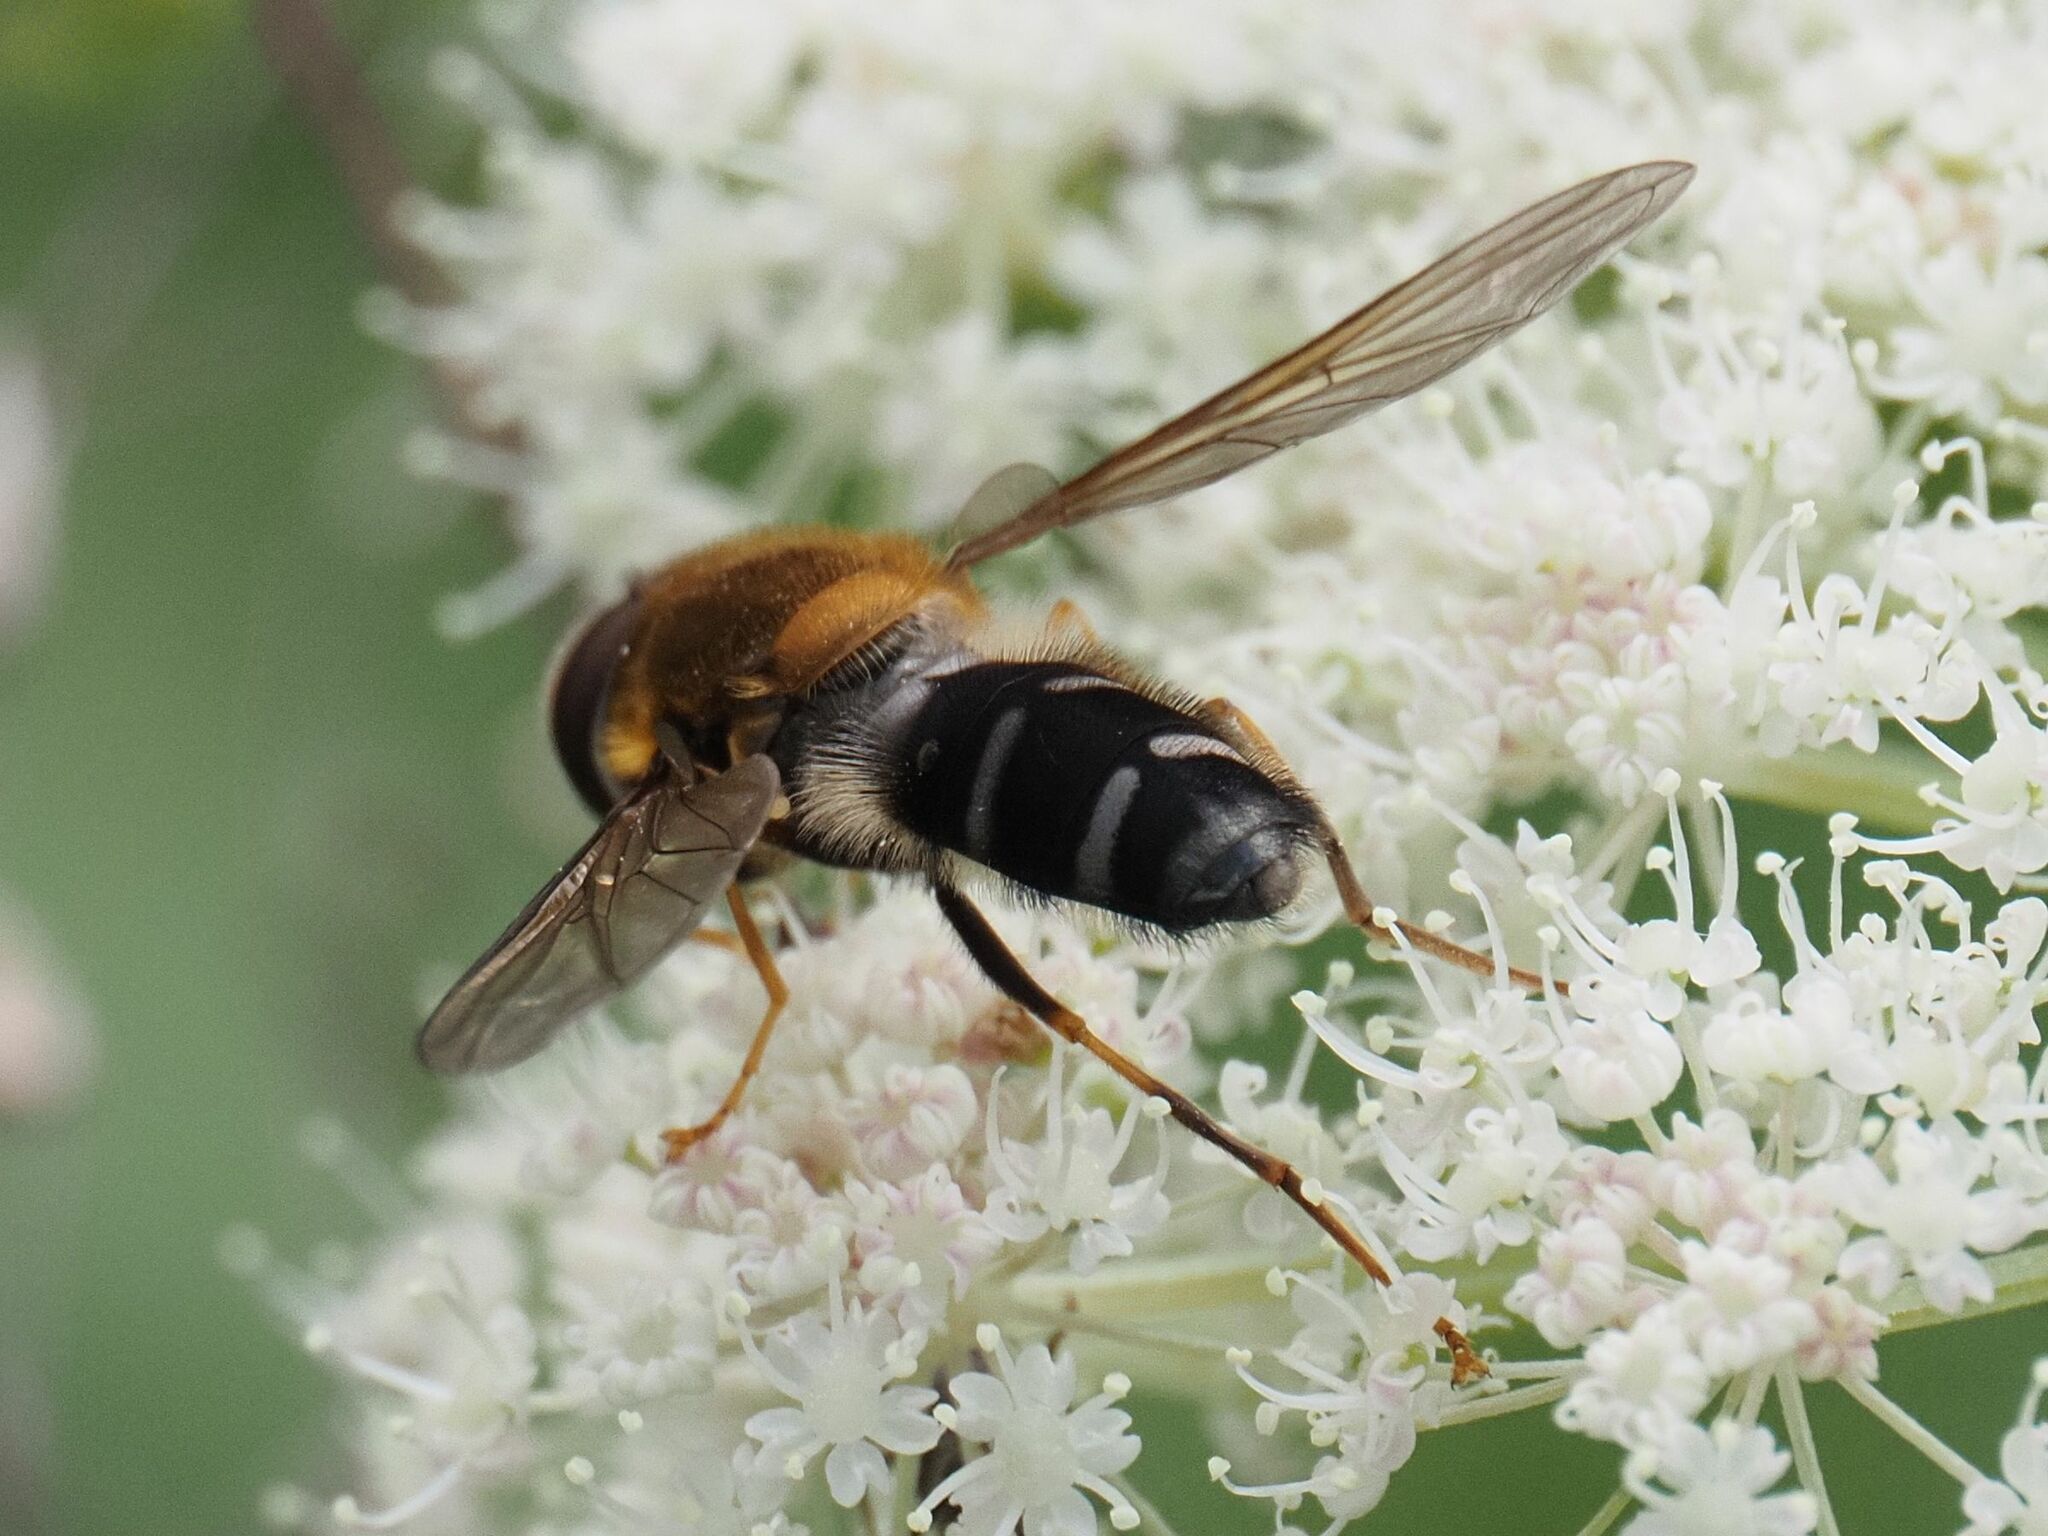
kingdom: Animalia
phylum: Arthropoda
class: Insecta
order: Diptera
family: Syrphidae
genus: Leucozona
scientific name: Leucozona glaucia
